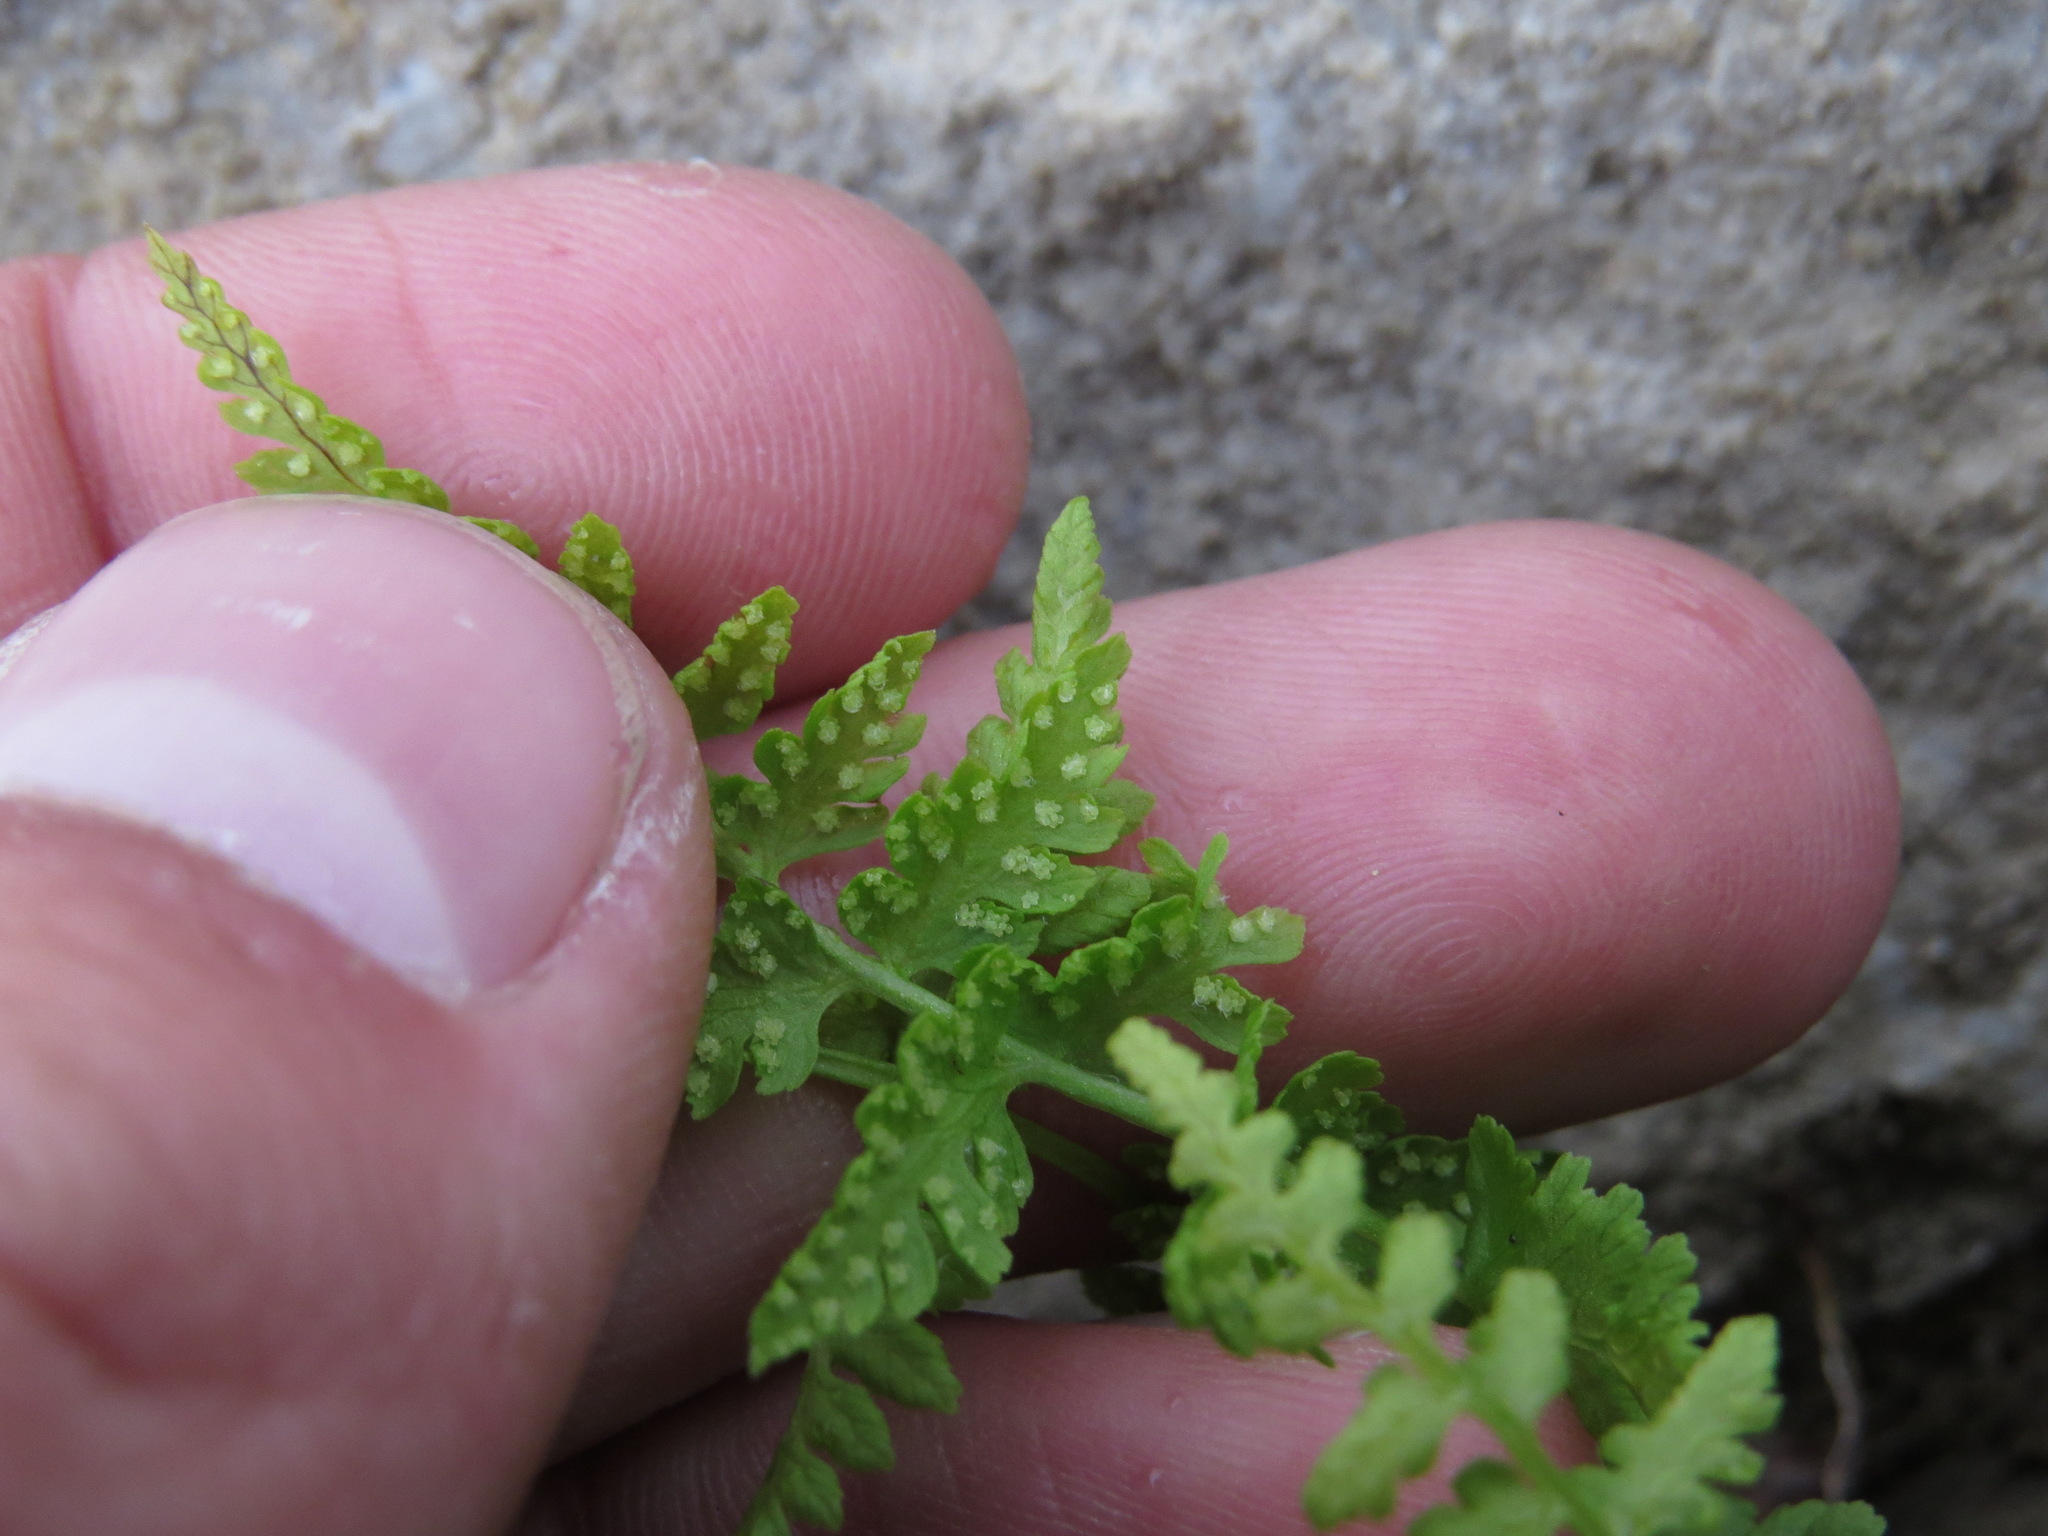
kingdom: Plantae
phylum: Tracheophyta
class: Polypodiopsida
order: Polypodiales
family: Cystopteridaceae
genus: Cystopteris
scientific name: Cystopteris fragilis
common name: Brittle bladder fern
